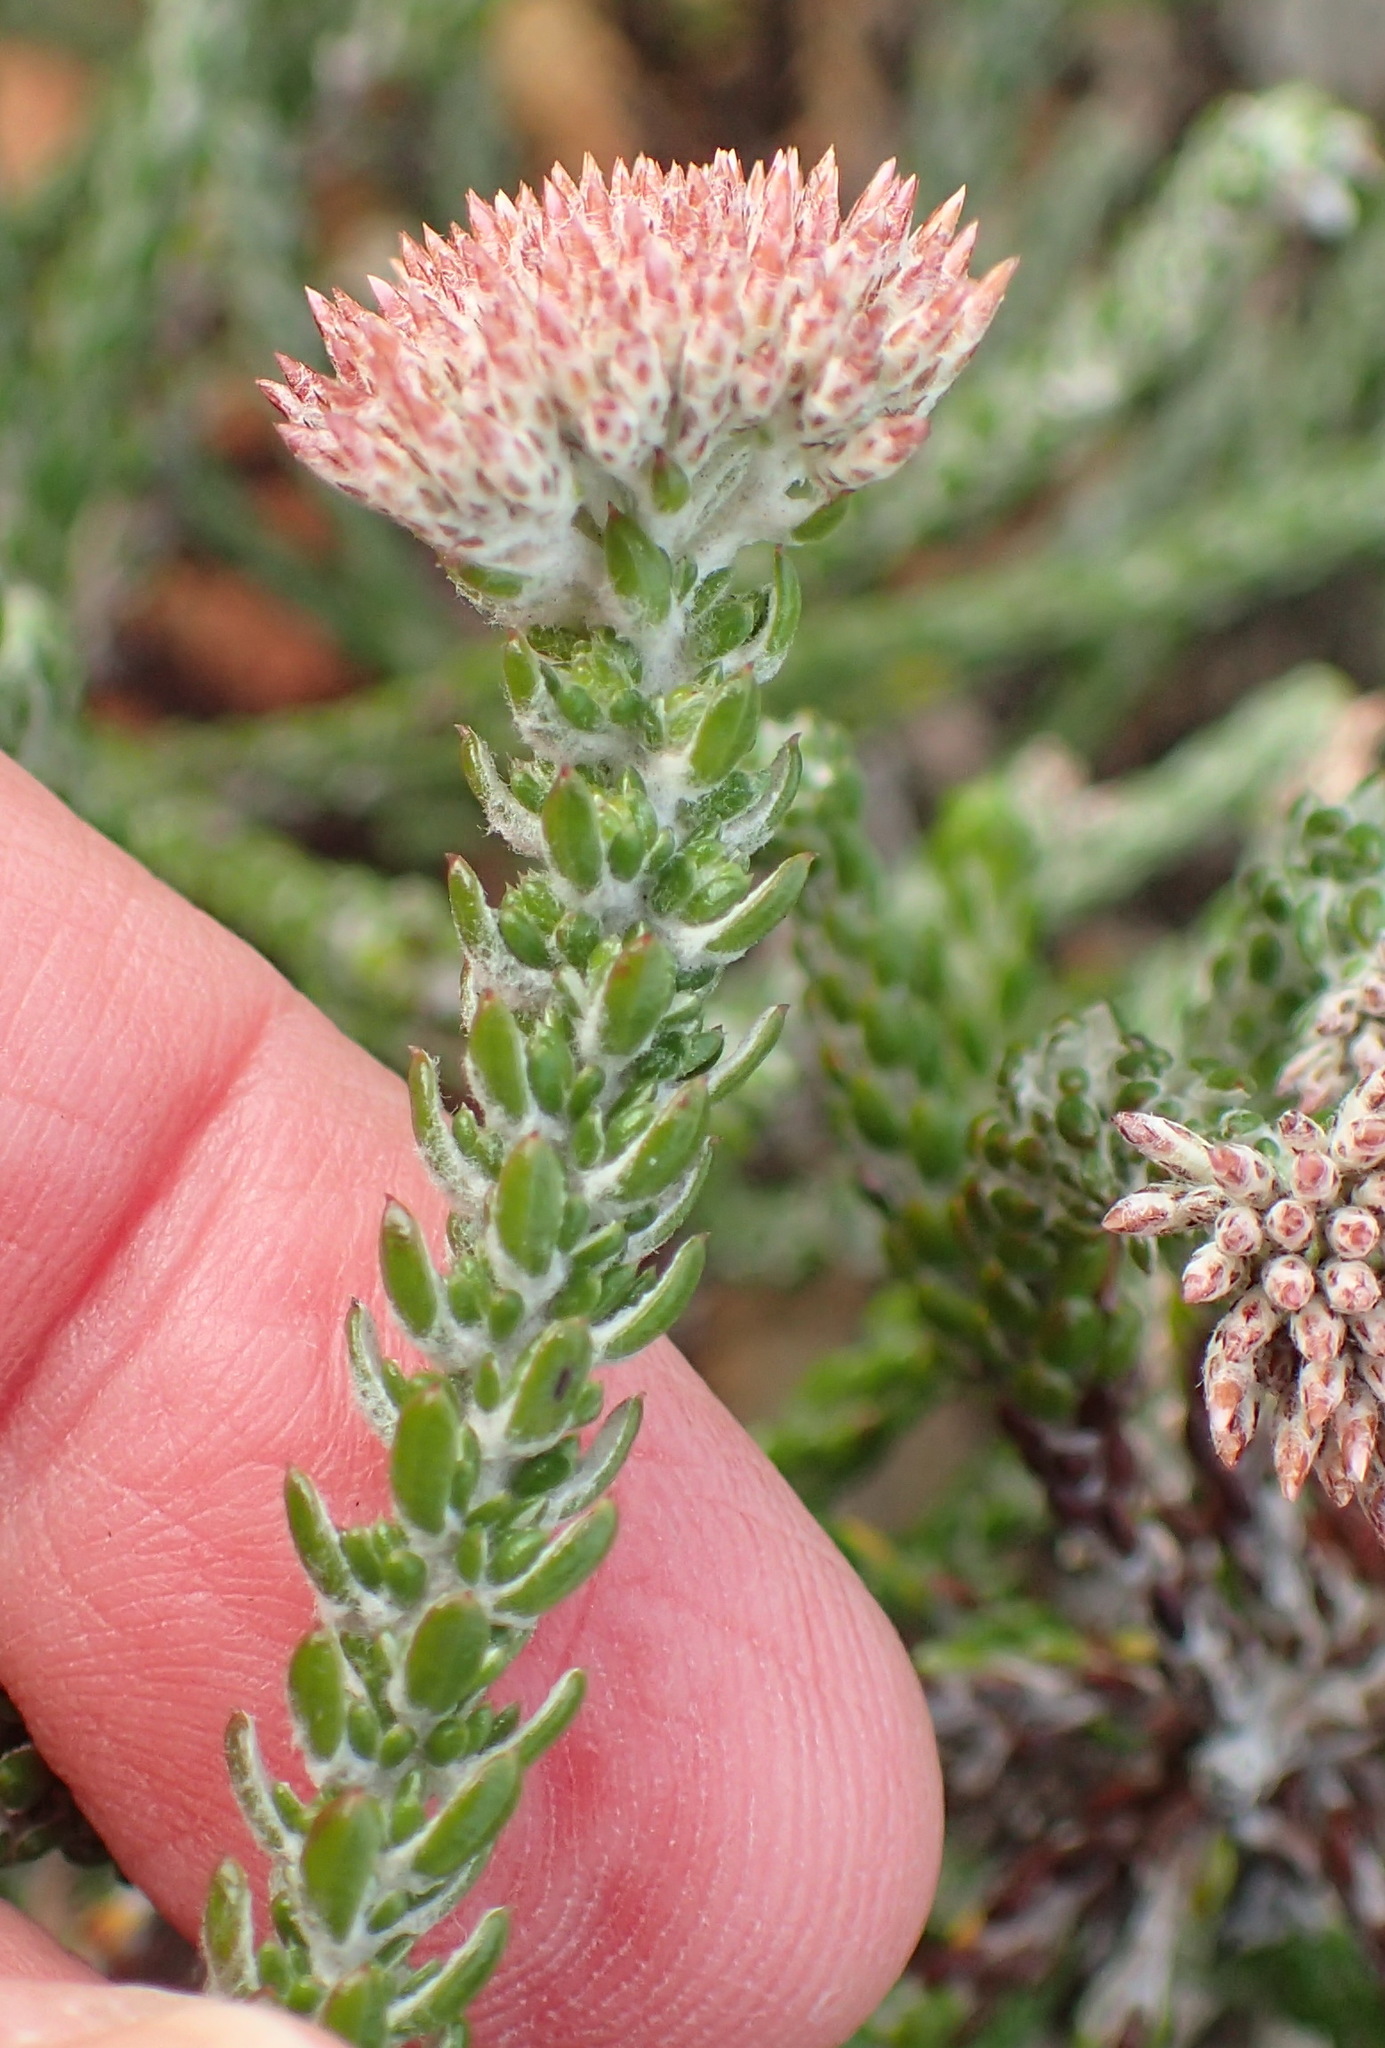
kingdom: Plantae
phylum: Tracheophyta
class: Magnoliopsida
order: Asterales
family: Asteraceae
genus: Metalasia
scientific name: Metalasia pungens
